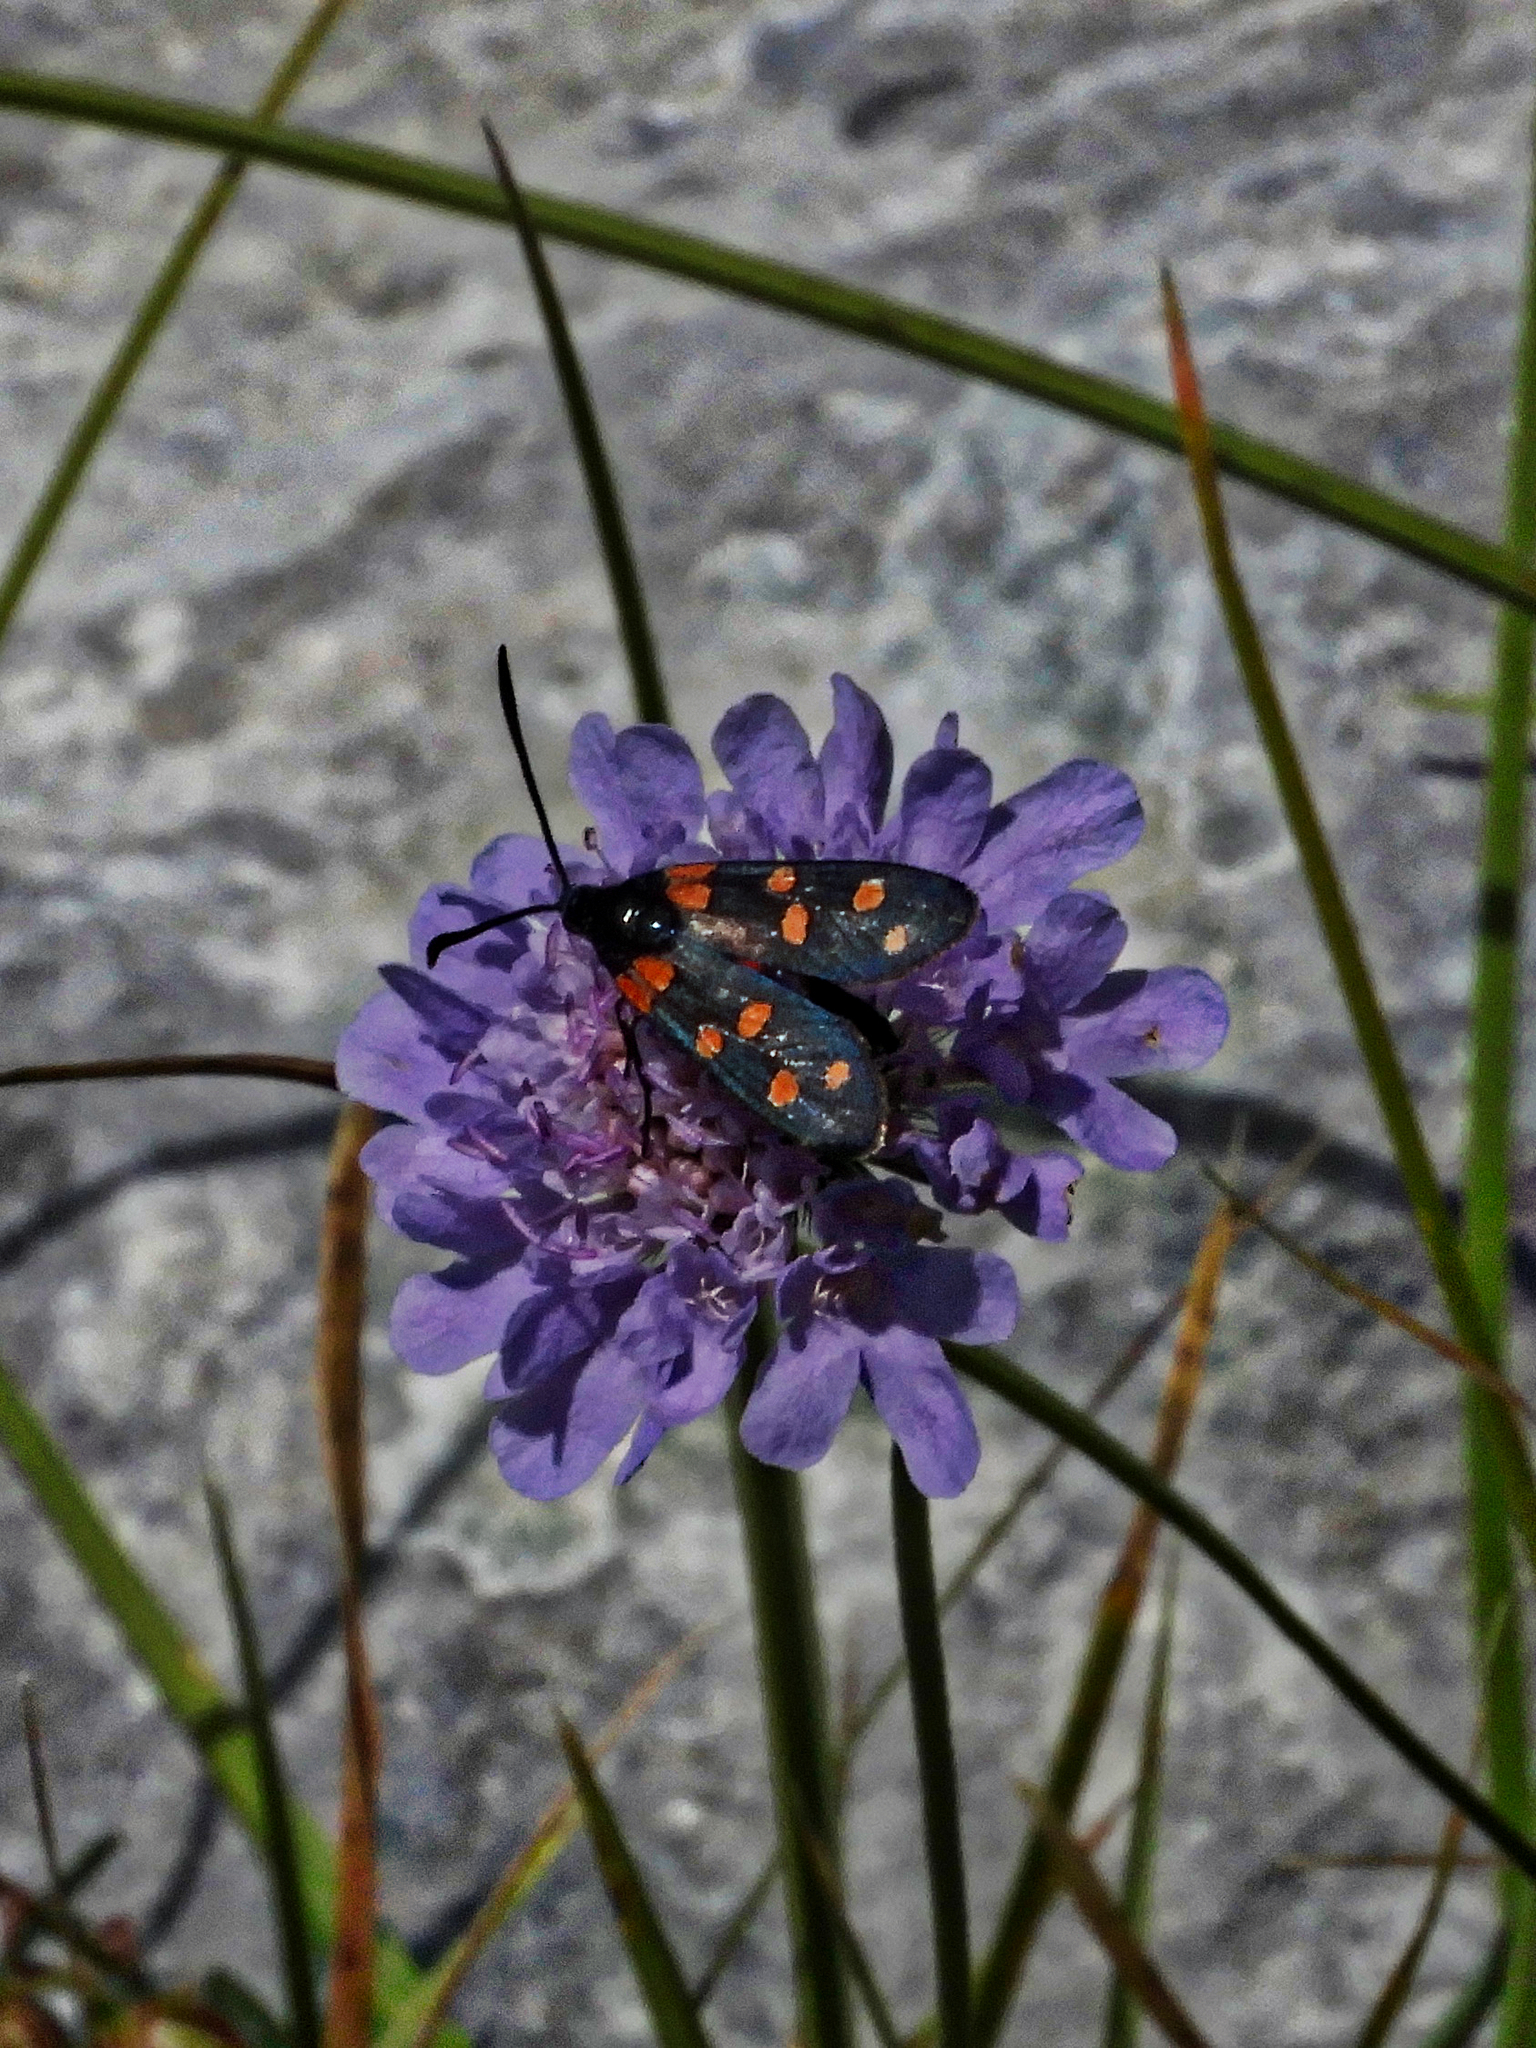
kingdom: Animalia
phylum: Arthropoda
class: Insecta
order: Lepidoptera
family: Zygaenidae
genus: Zygaena
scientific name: Zygaena transalpina
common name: Southern six spot burnet
